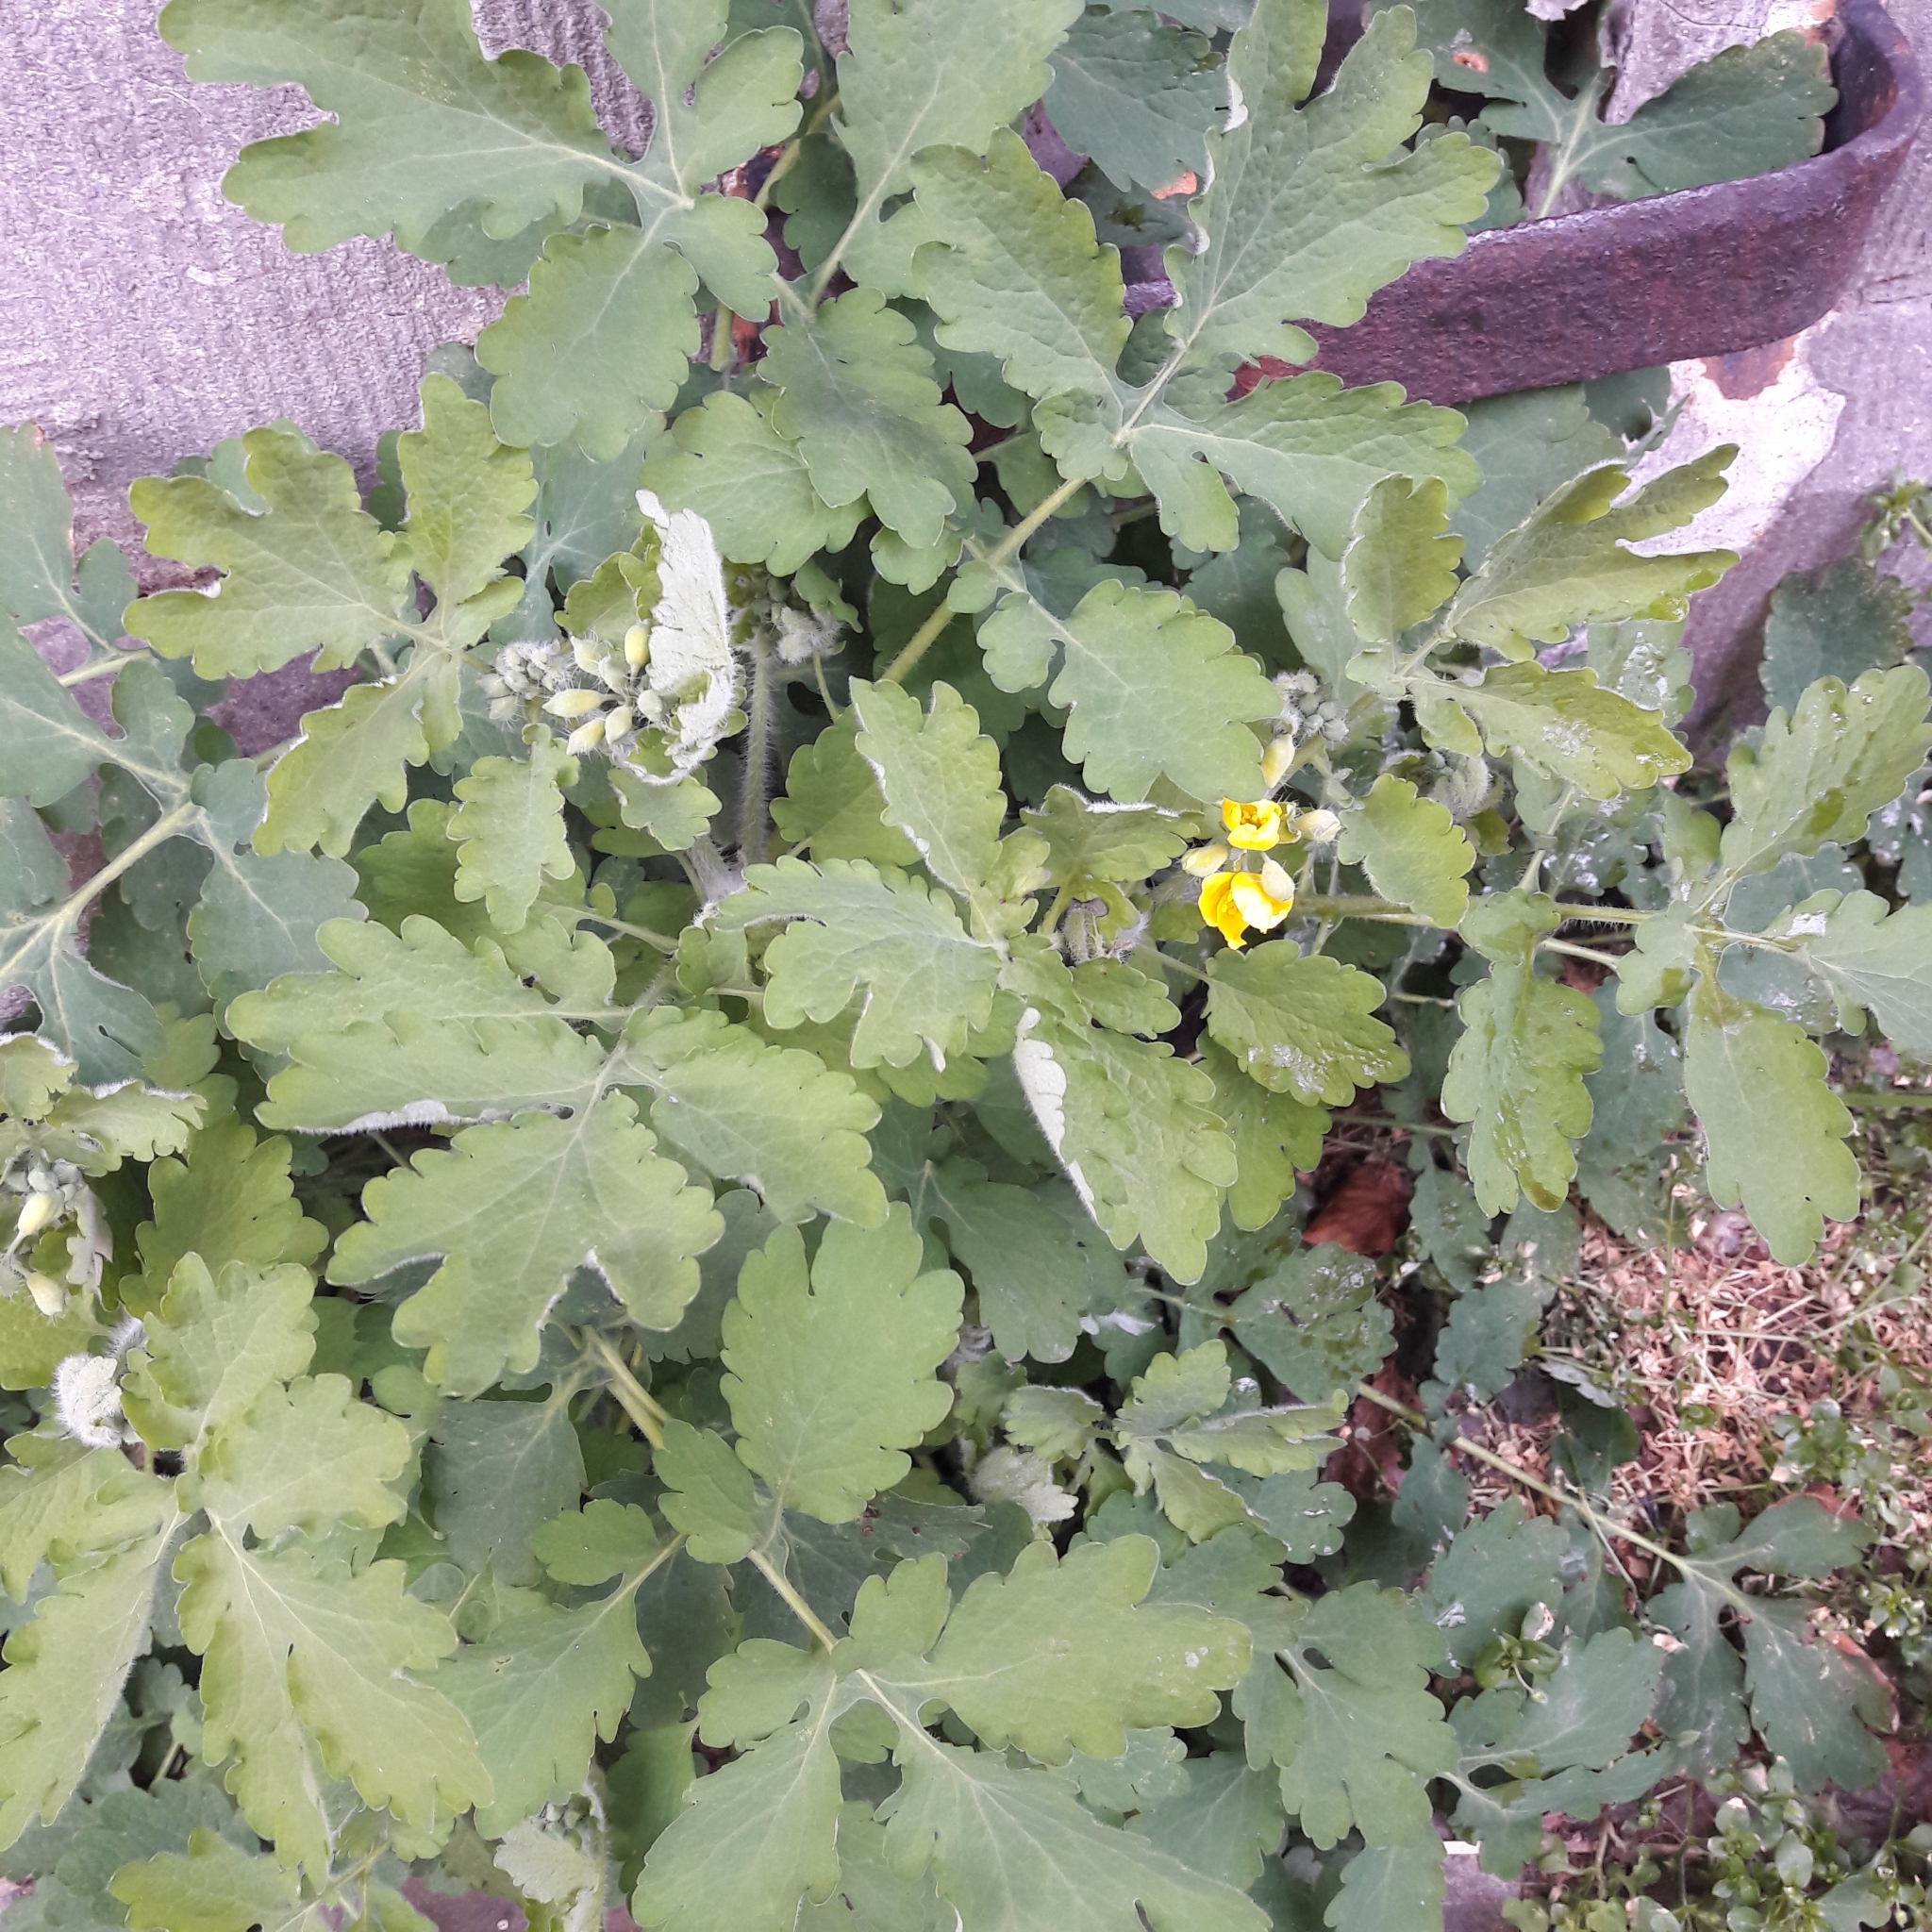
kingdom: Plantae
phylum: Tracheophyta
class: Magnoliopsida
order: Ranunculales
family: Papaveraceae
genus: Chelidonium
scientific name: Chelidonium majus
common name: Greater celandine
